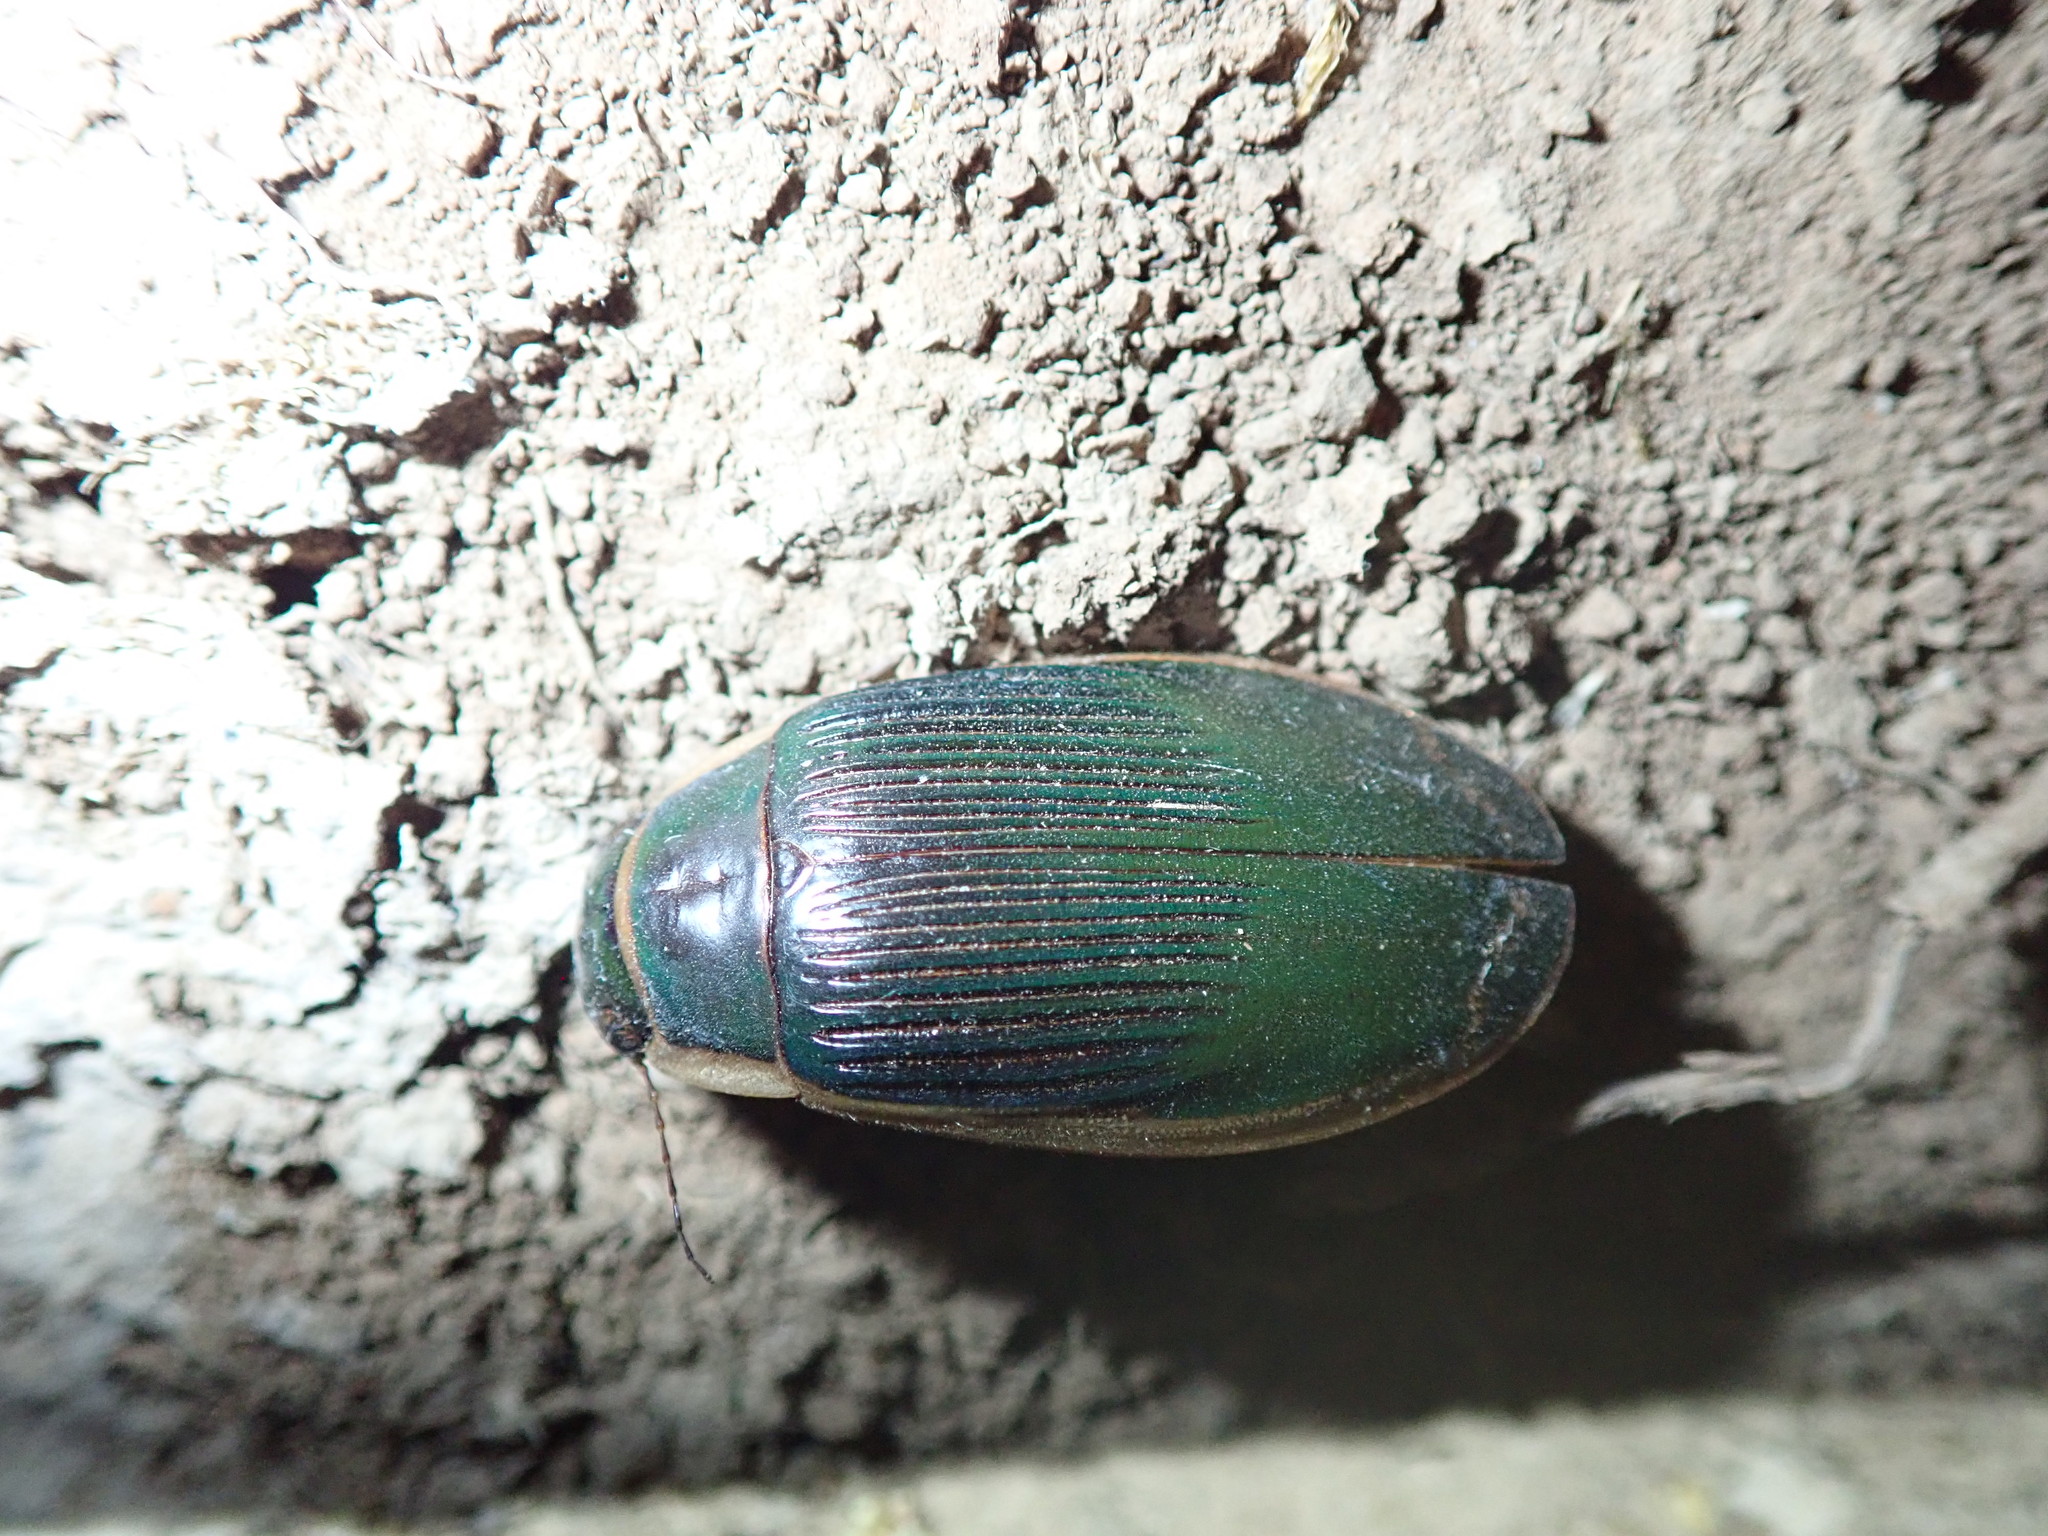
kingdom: Animalia
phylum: Arthropoda
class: Insecta
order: Coleoptera
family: Dytiscidae
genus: Dytiscus
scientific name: Dytiscus dimidiatus
